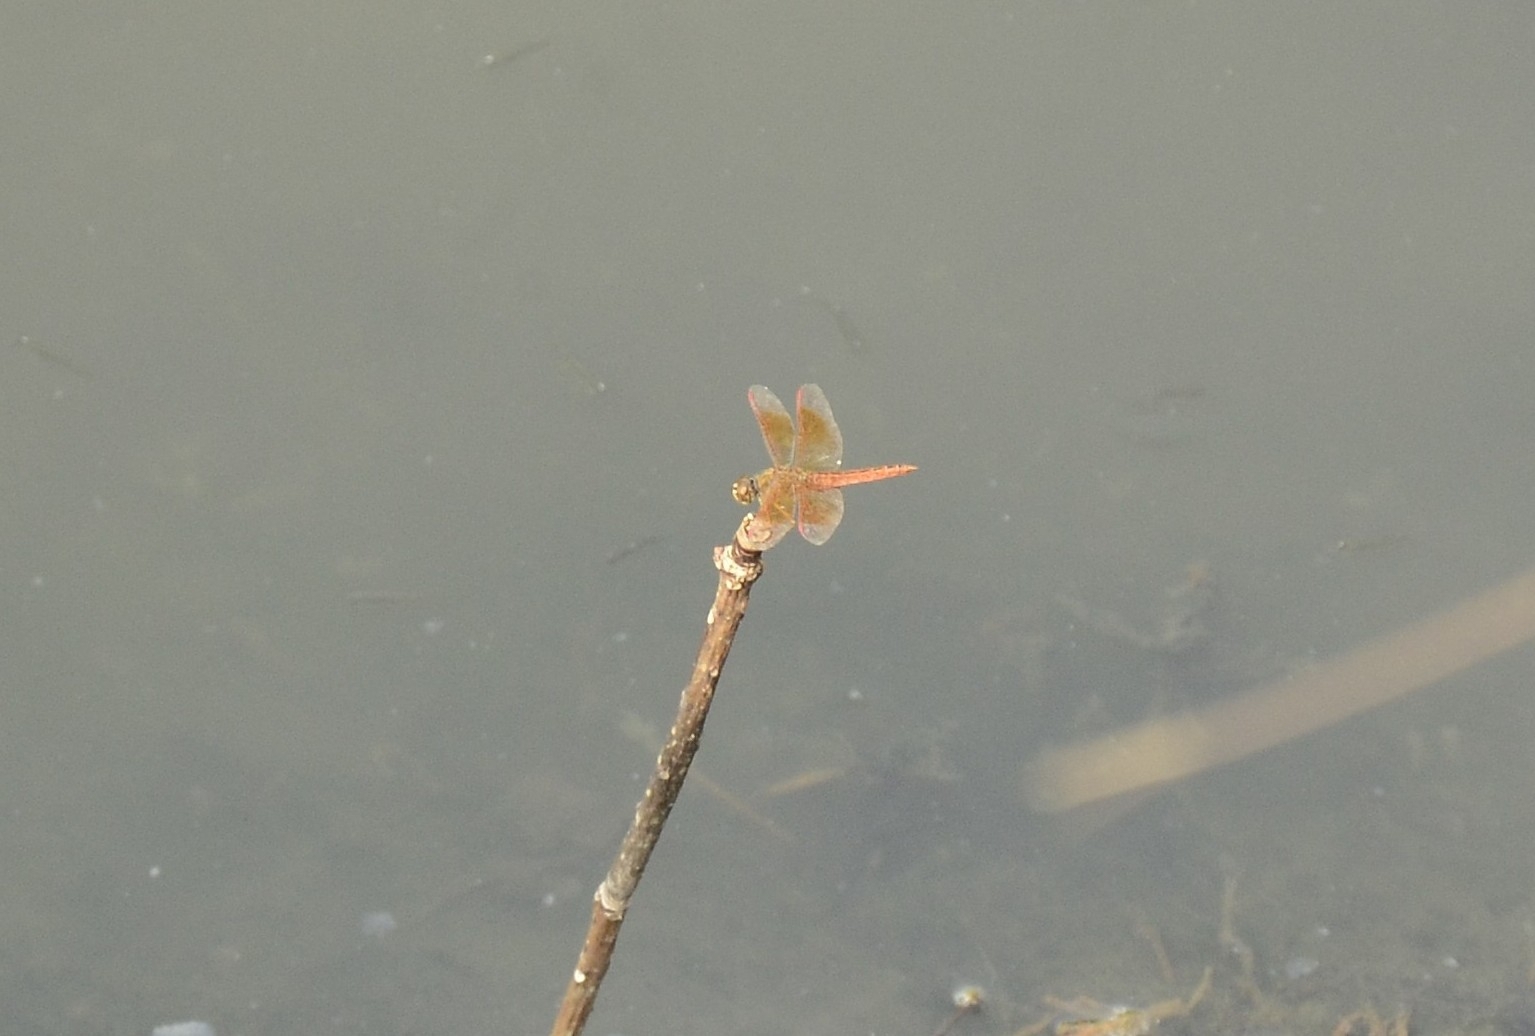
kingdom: Animalia
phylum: Arthropoda
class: Insecta
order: Odonata
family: Libellulidae
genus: Brachythemis
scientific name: Brachythemis contaminata
